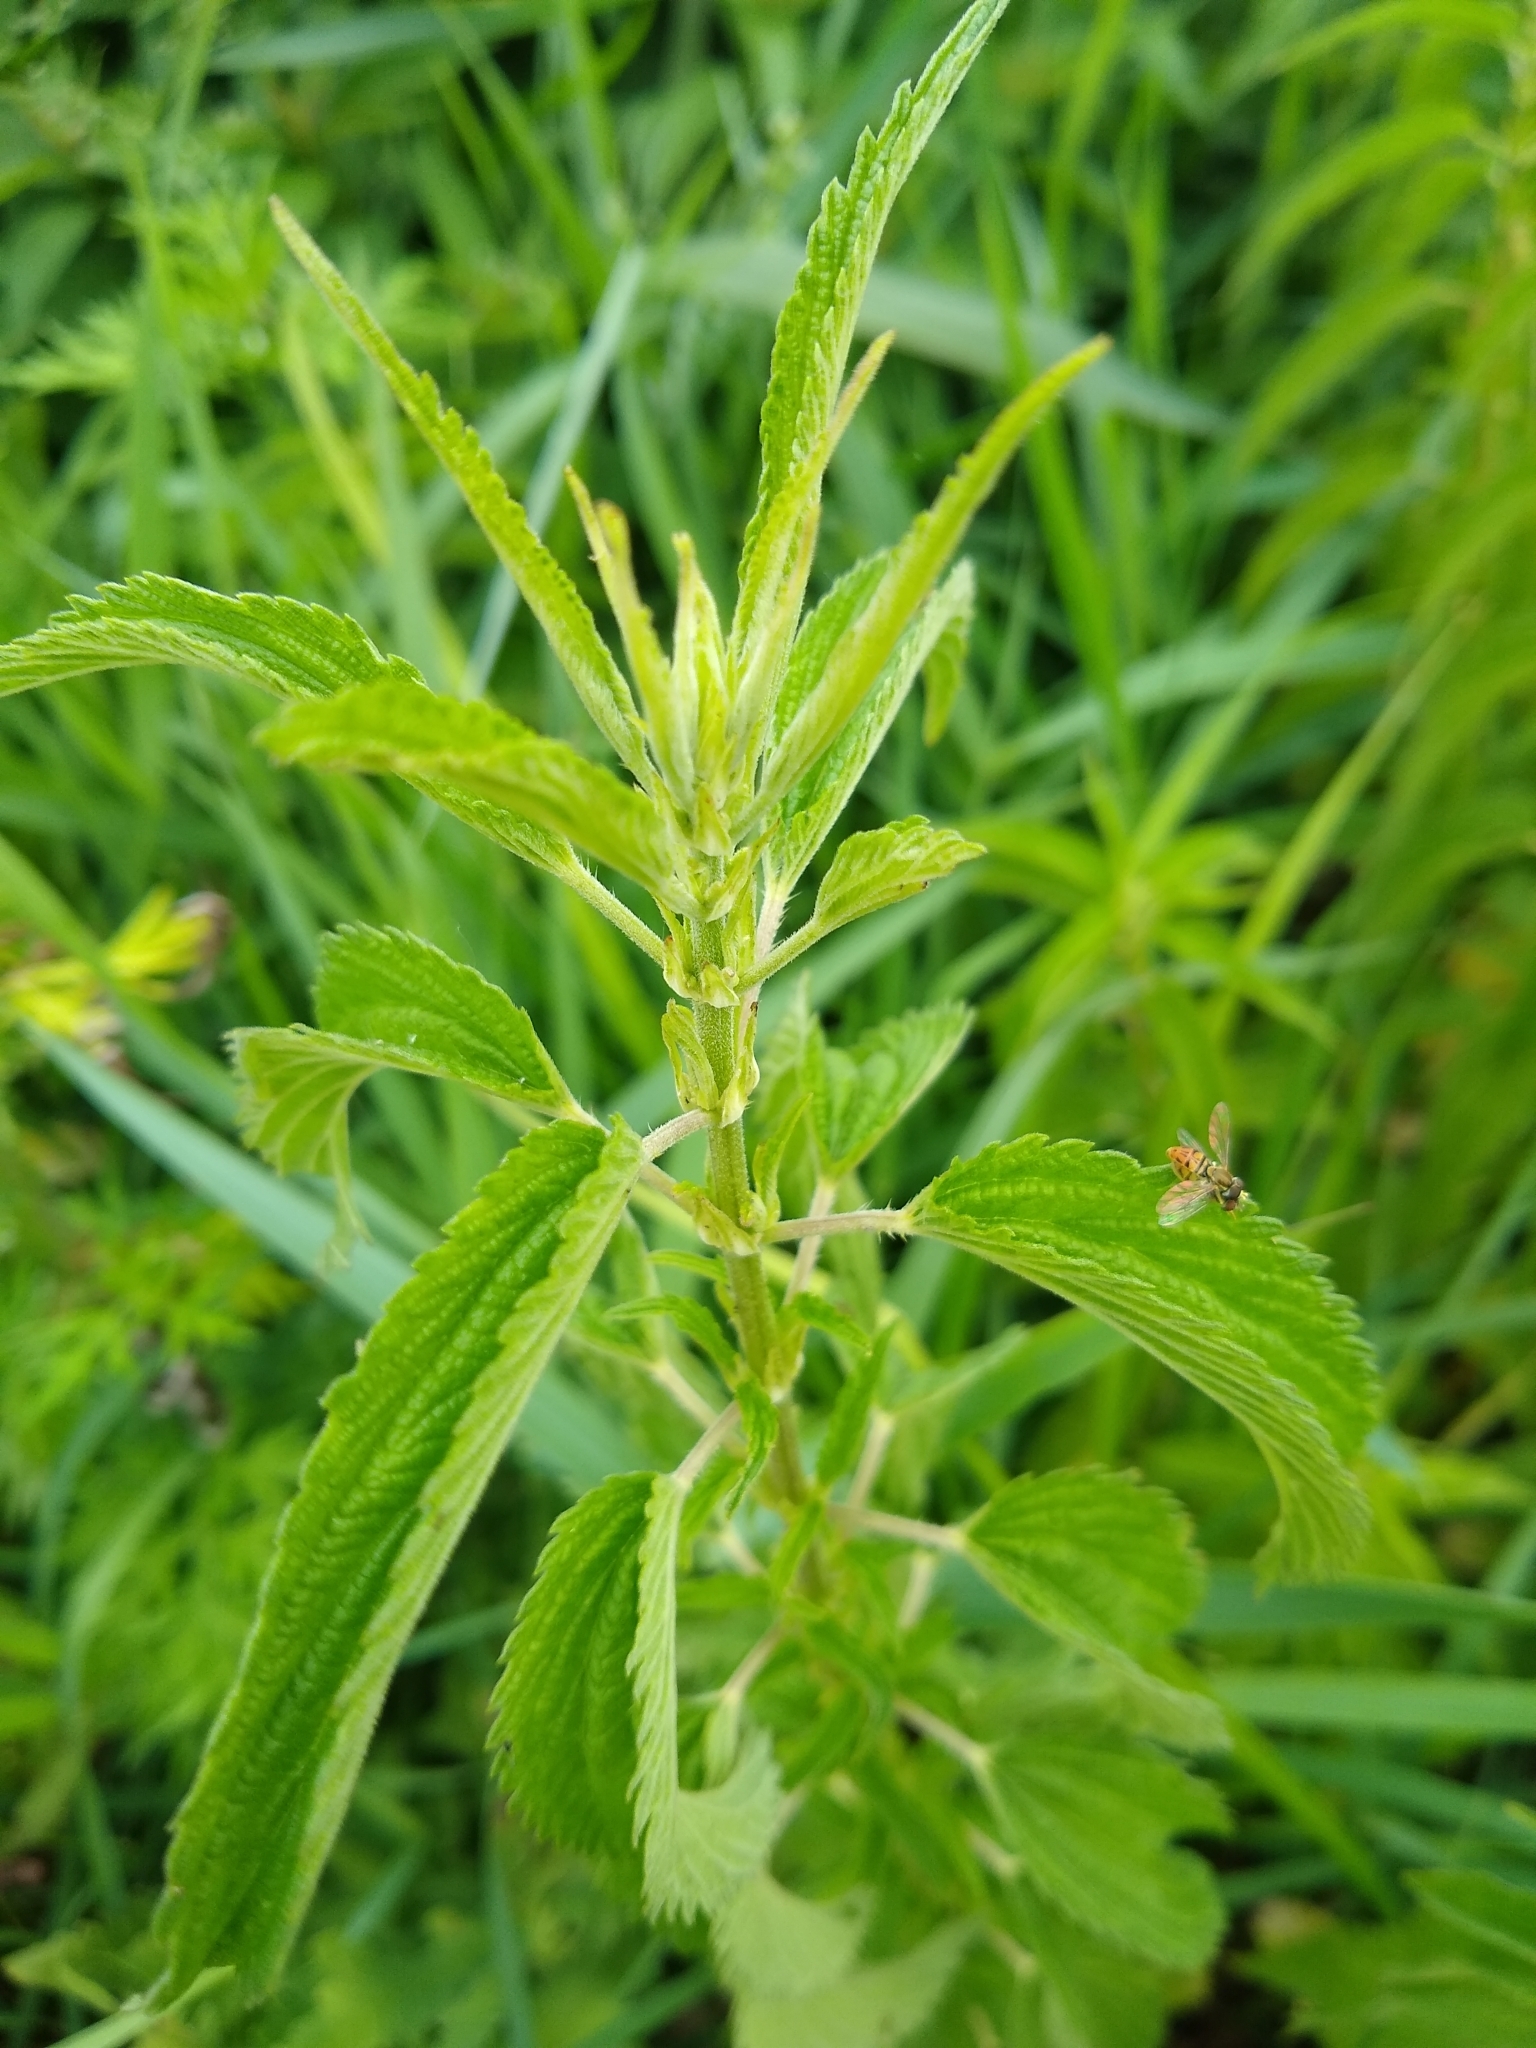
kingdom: Plantae
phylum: Tracheophyta
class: Magnoliopsida
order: Rosales
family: Urticaceae
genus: Urtica
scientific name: Urtica dioica
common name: Common nettle
